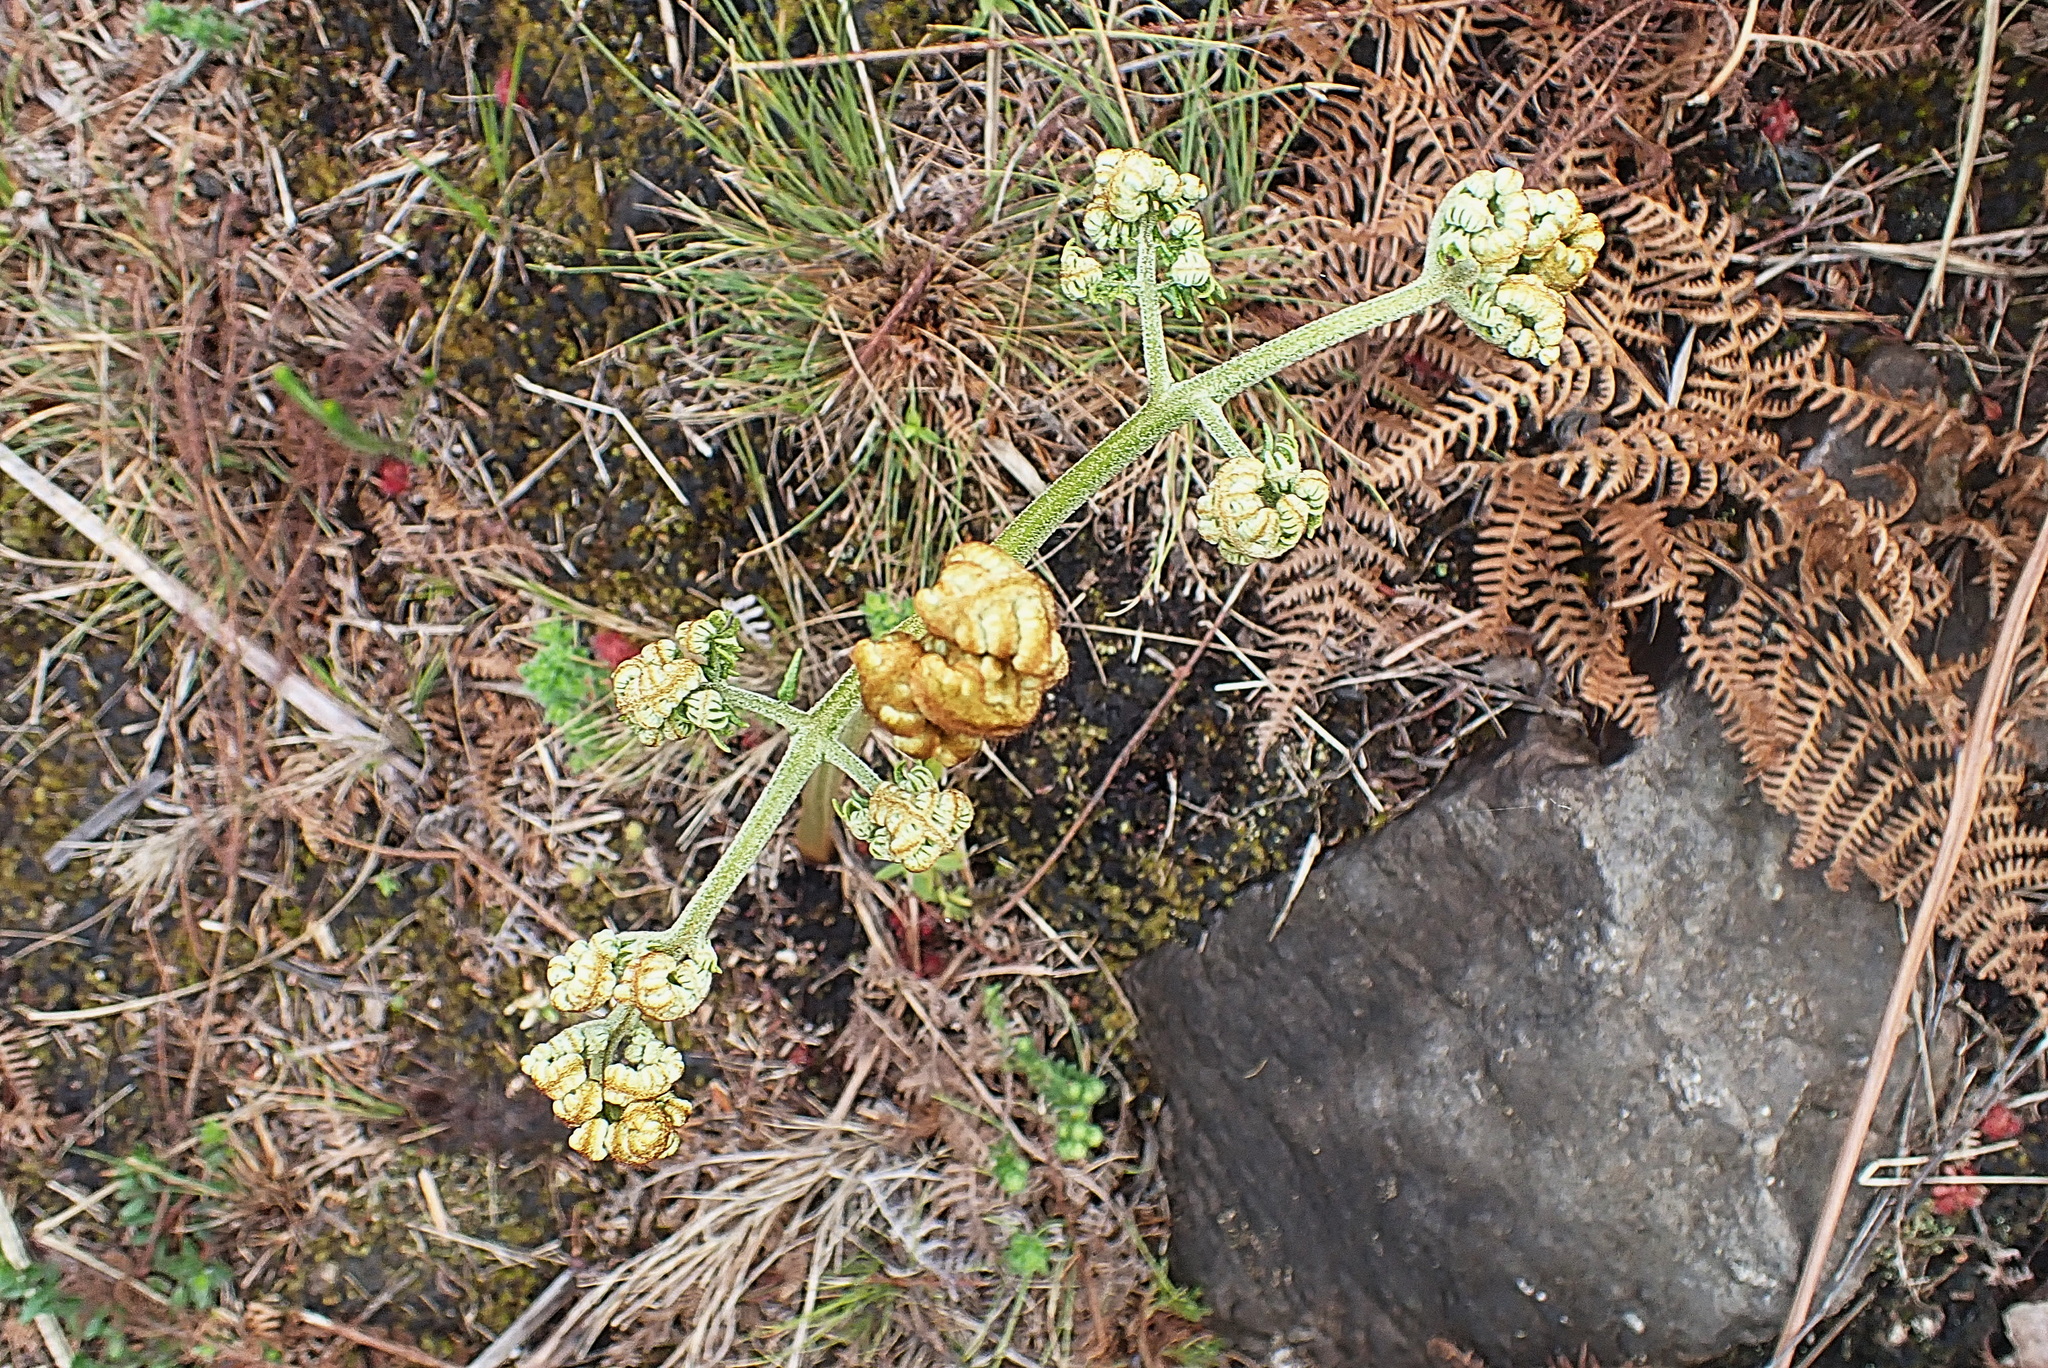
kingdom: Plantae
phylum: Tracheophyta
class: Polypodiopsida
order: Polypodiales
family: Dennstaedtiaceae
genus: Pteridium
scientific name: Pteridium aquilinum
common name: Bracken
